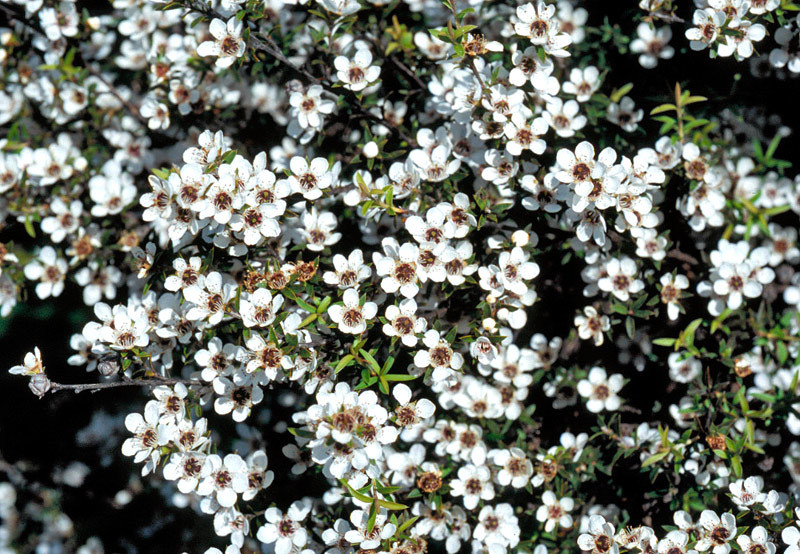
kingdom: Plantae
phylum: Tracheophyta
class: Magnoliopsida
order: Myrtales
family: Myrtaceae
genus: Leptospermum
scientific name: Leptospermum scoparium
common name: Broom tea-tree
